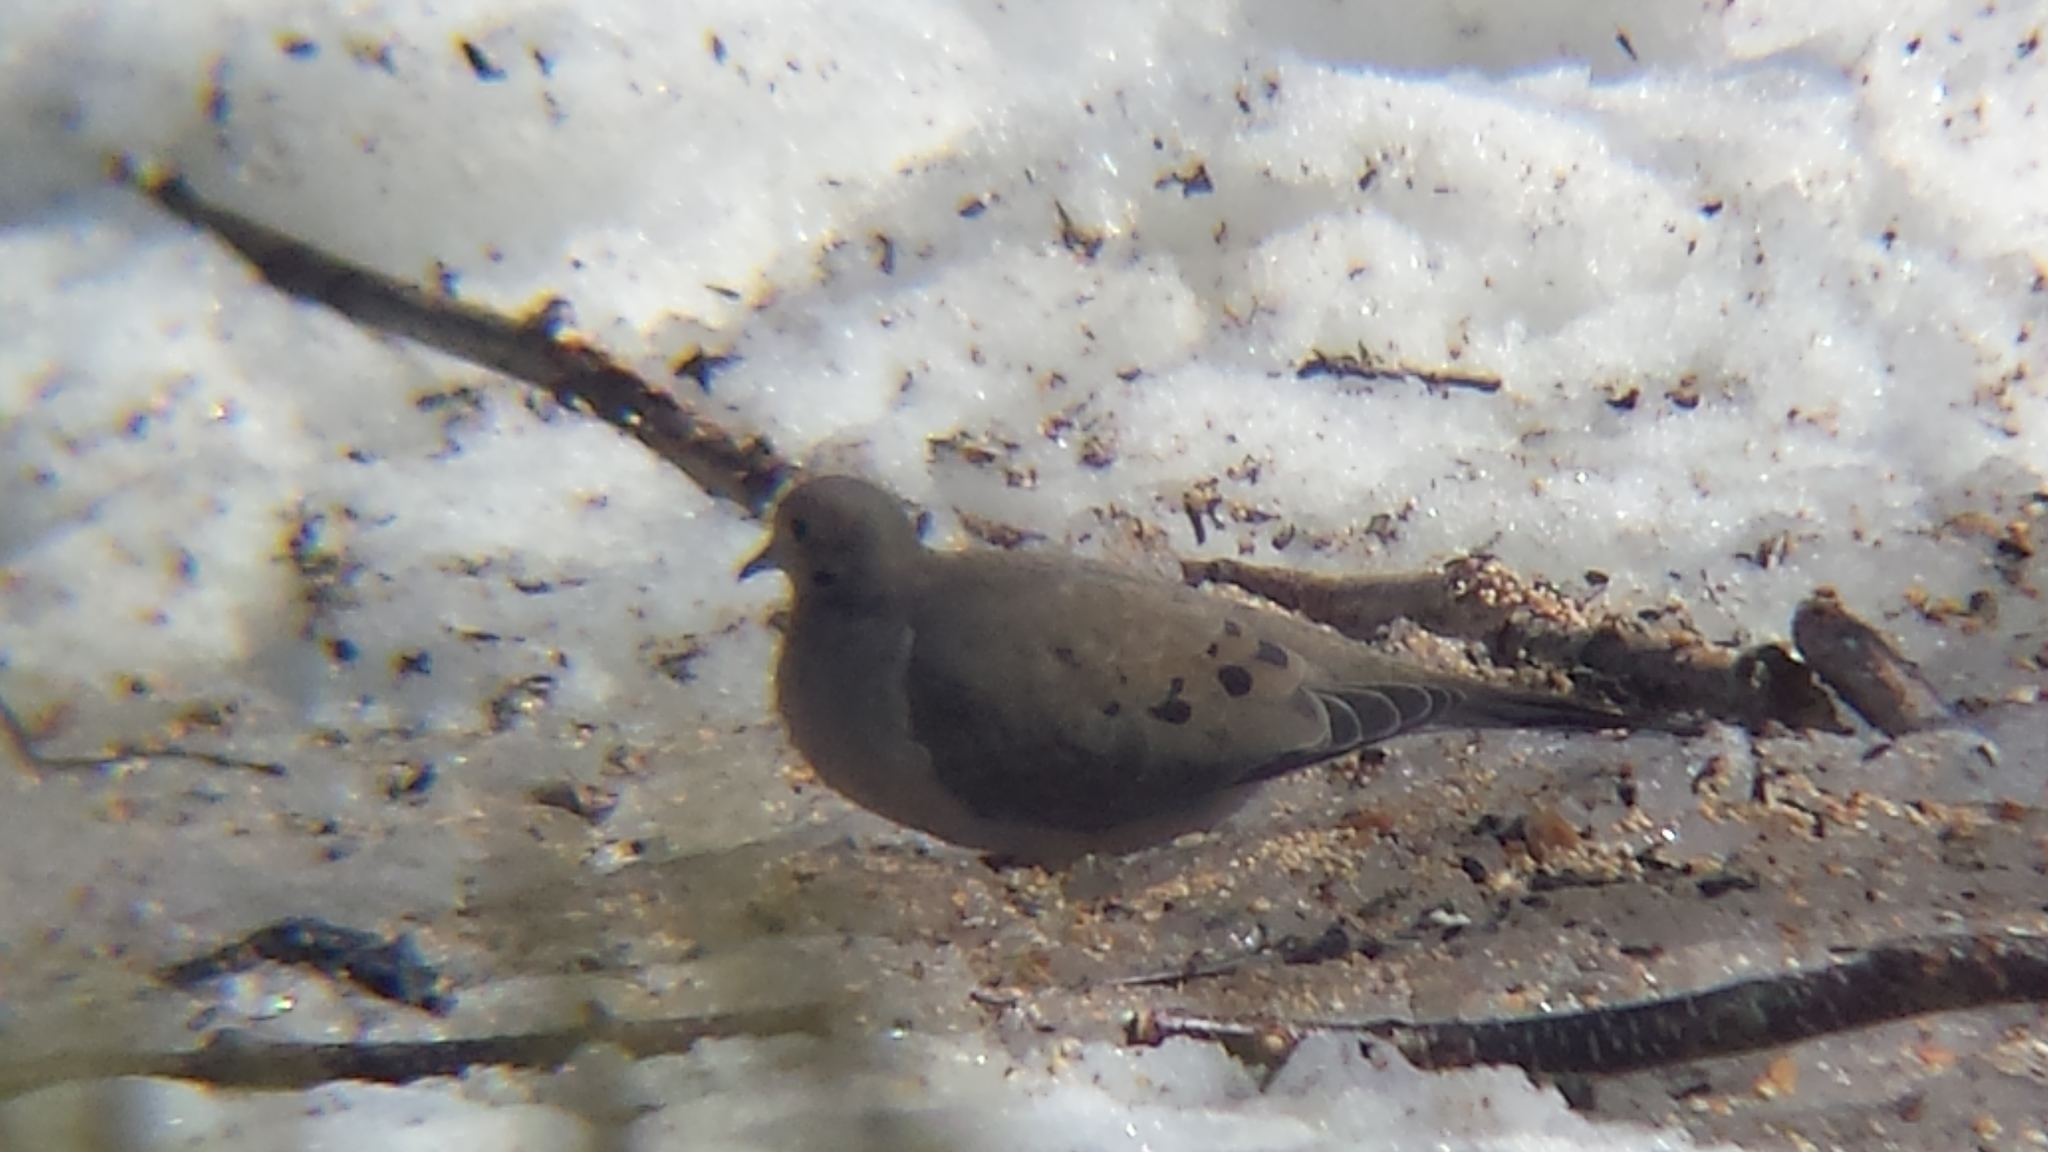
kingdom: Animalia
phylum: Chordata
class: Aves
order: Columbiformes
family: Columbidae
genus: Zenaida
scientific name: Zenaida macroura
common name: Mourning dove
